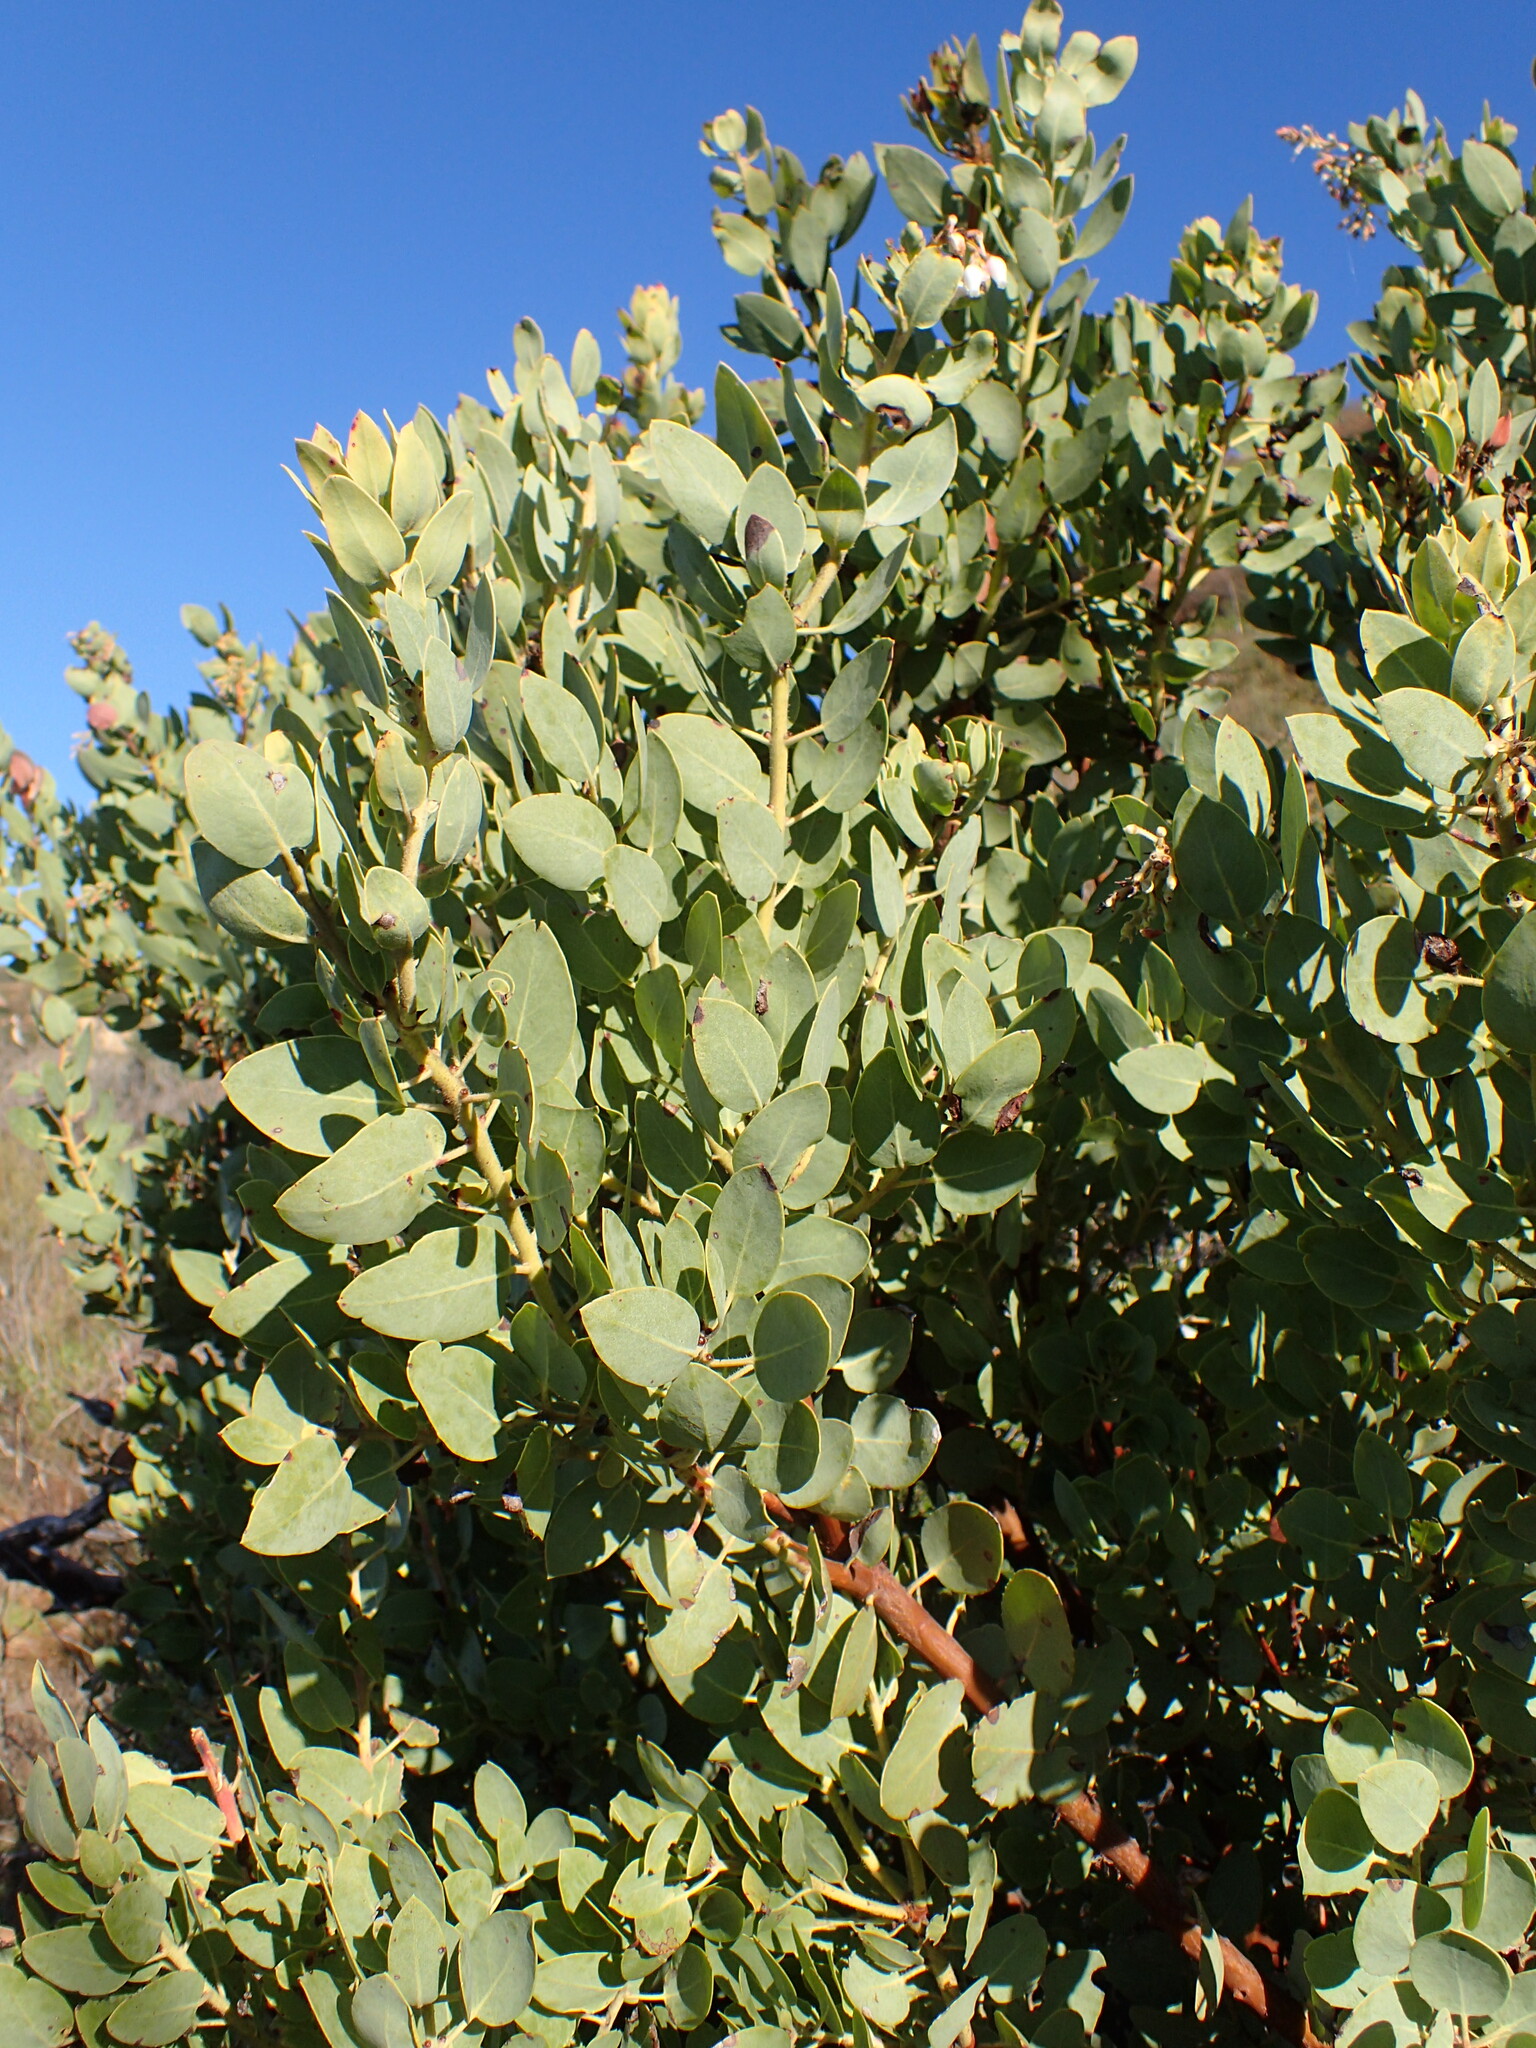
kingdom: Plantae
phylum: Tracheophyta
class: Magnoliopsida
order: Ericales
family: Ericaceae
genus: Arctostaphylos
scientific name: Arctostaphylos glauca
